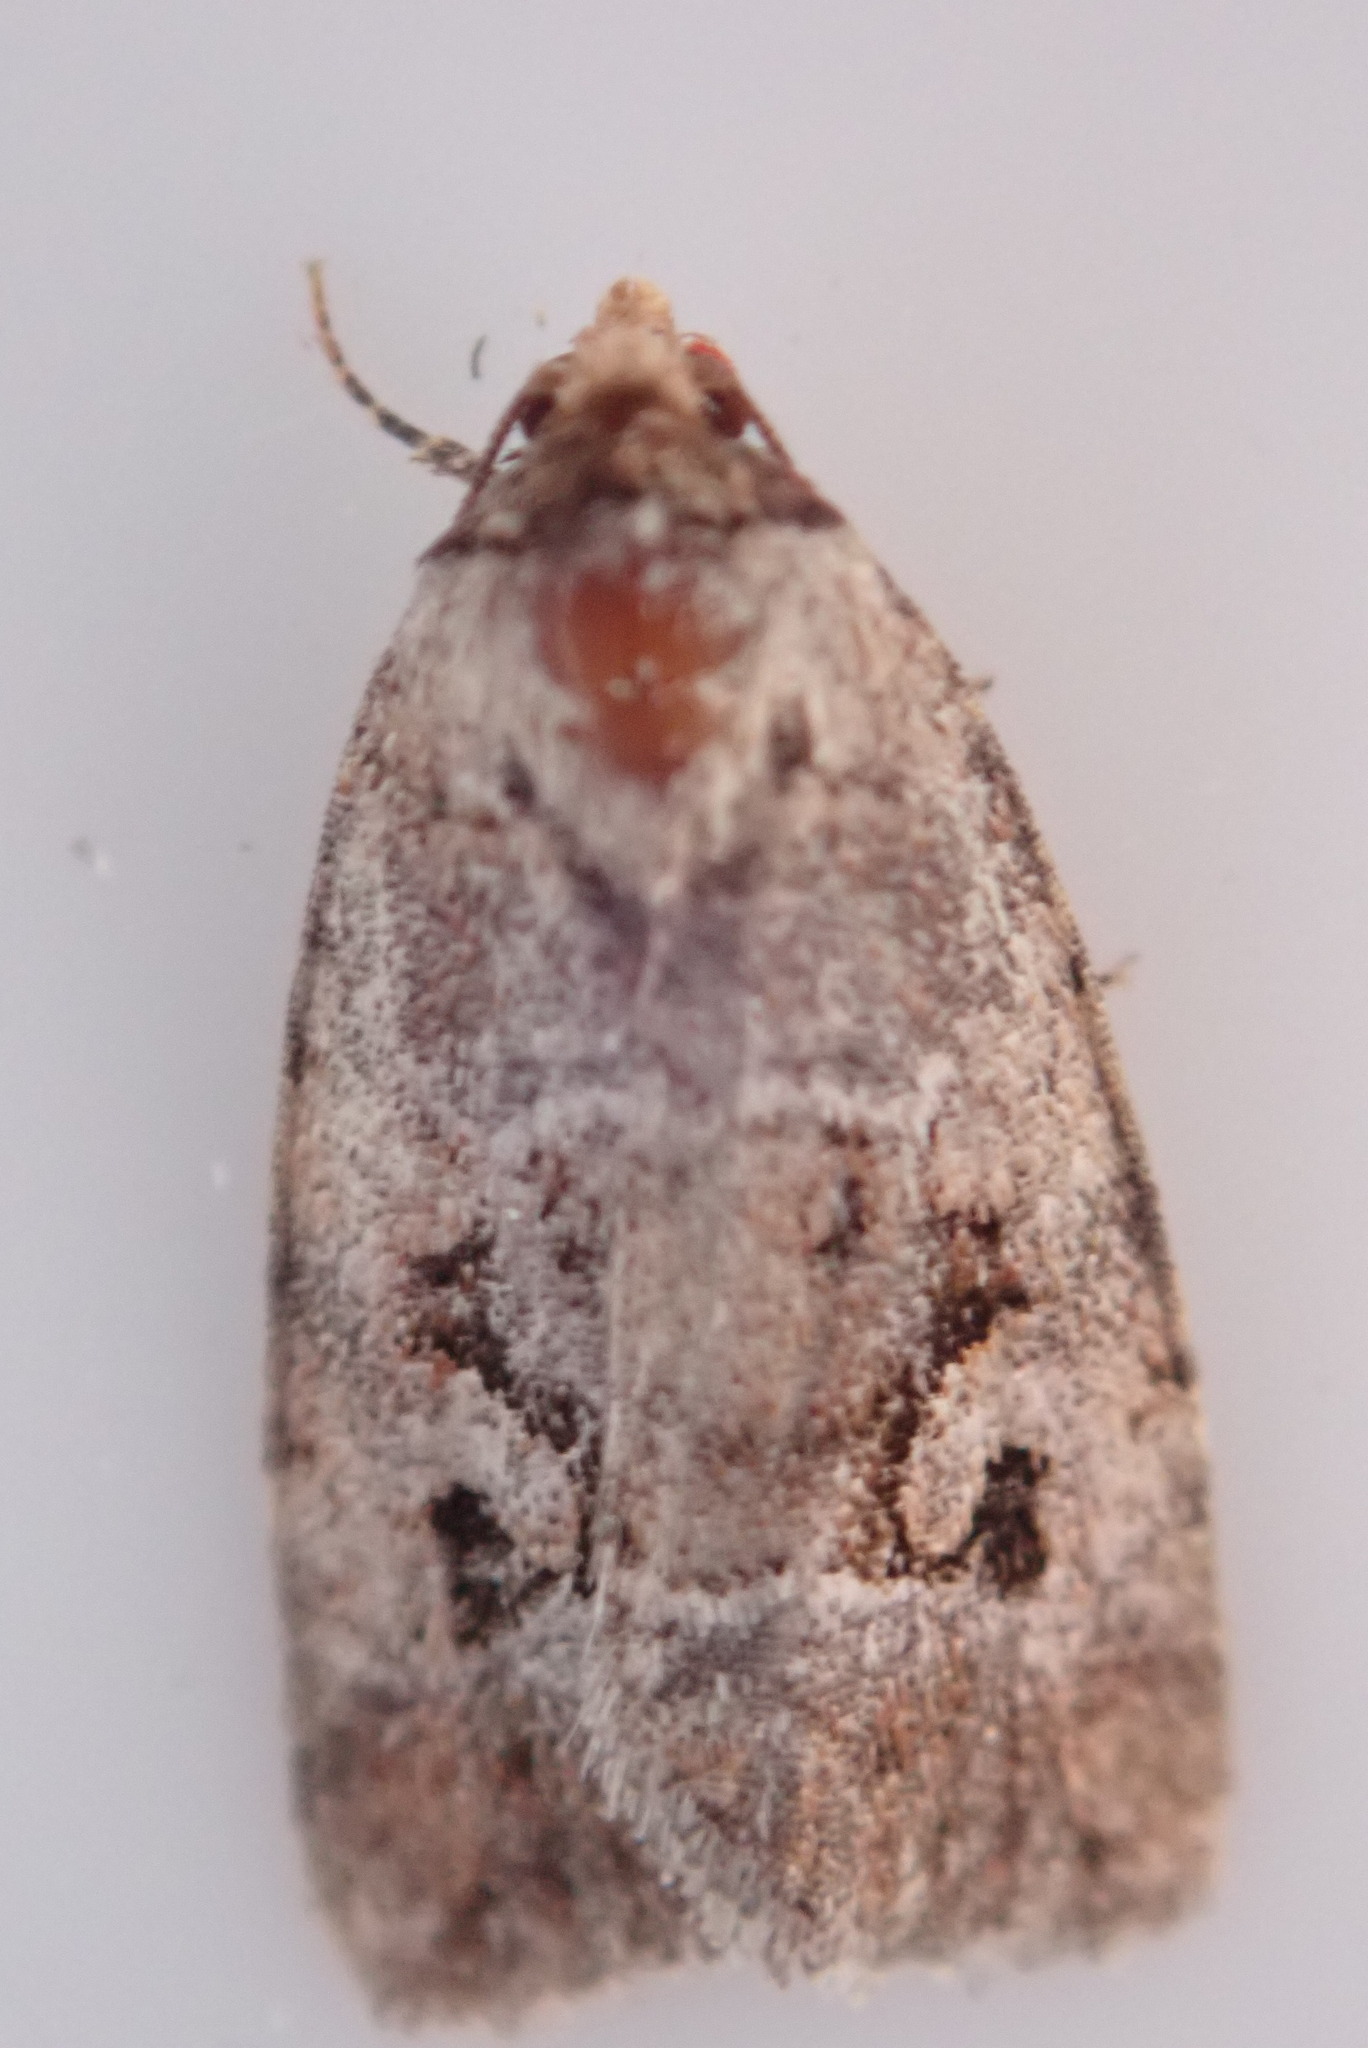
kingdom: Animalia
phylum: Arthropoda
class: Insecta
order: Lepidoptera
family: Noctuidae
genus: Elaphria
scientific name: Elaphria alapallida
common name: Pale-winged midget
